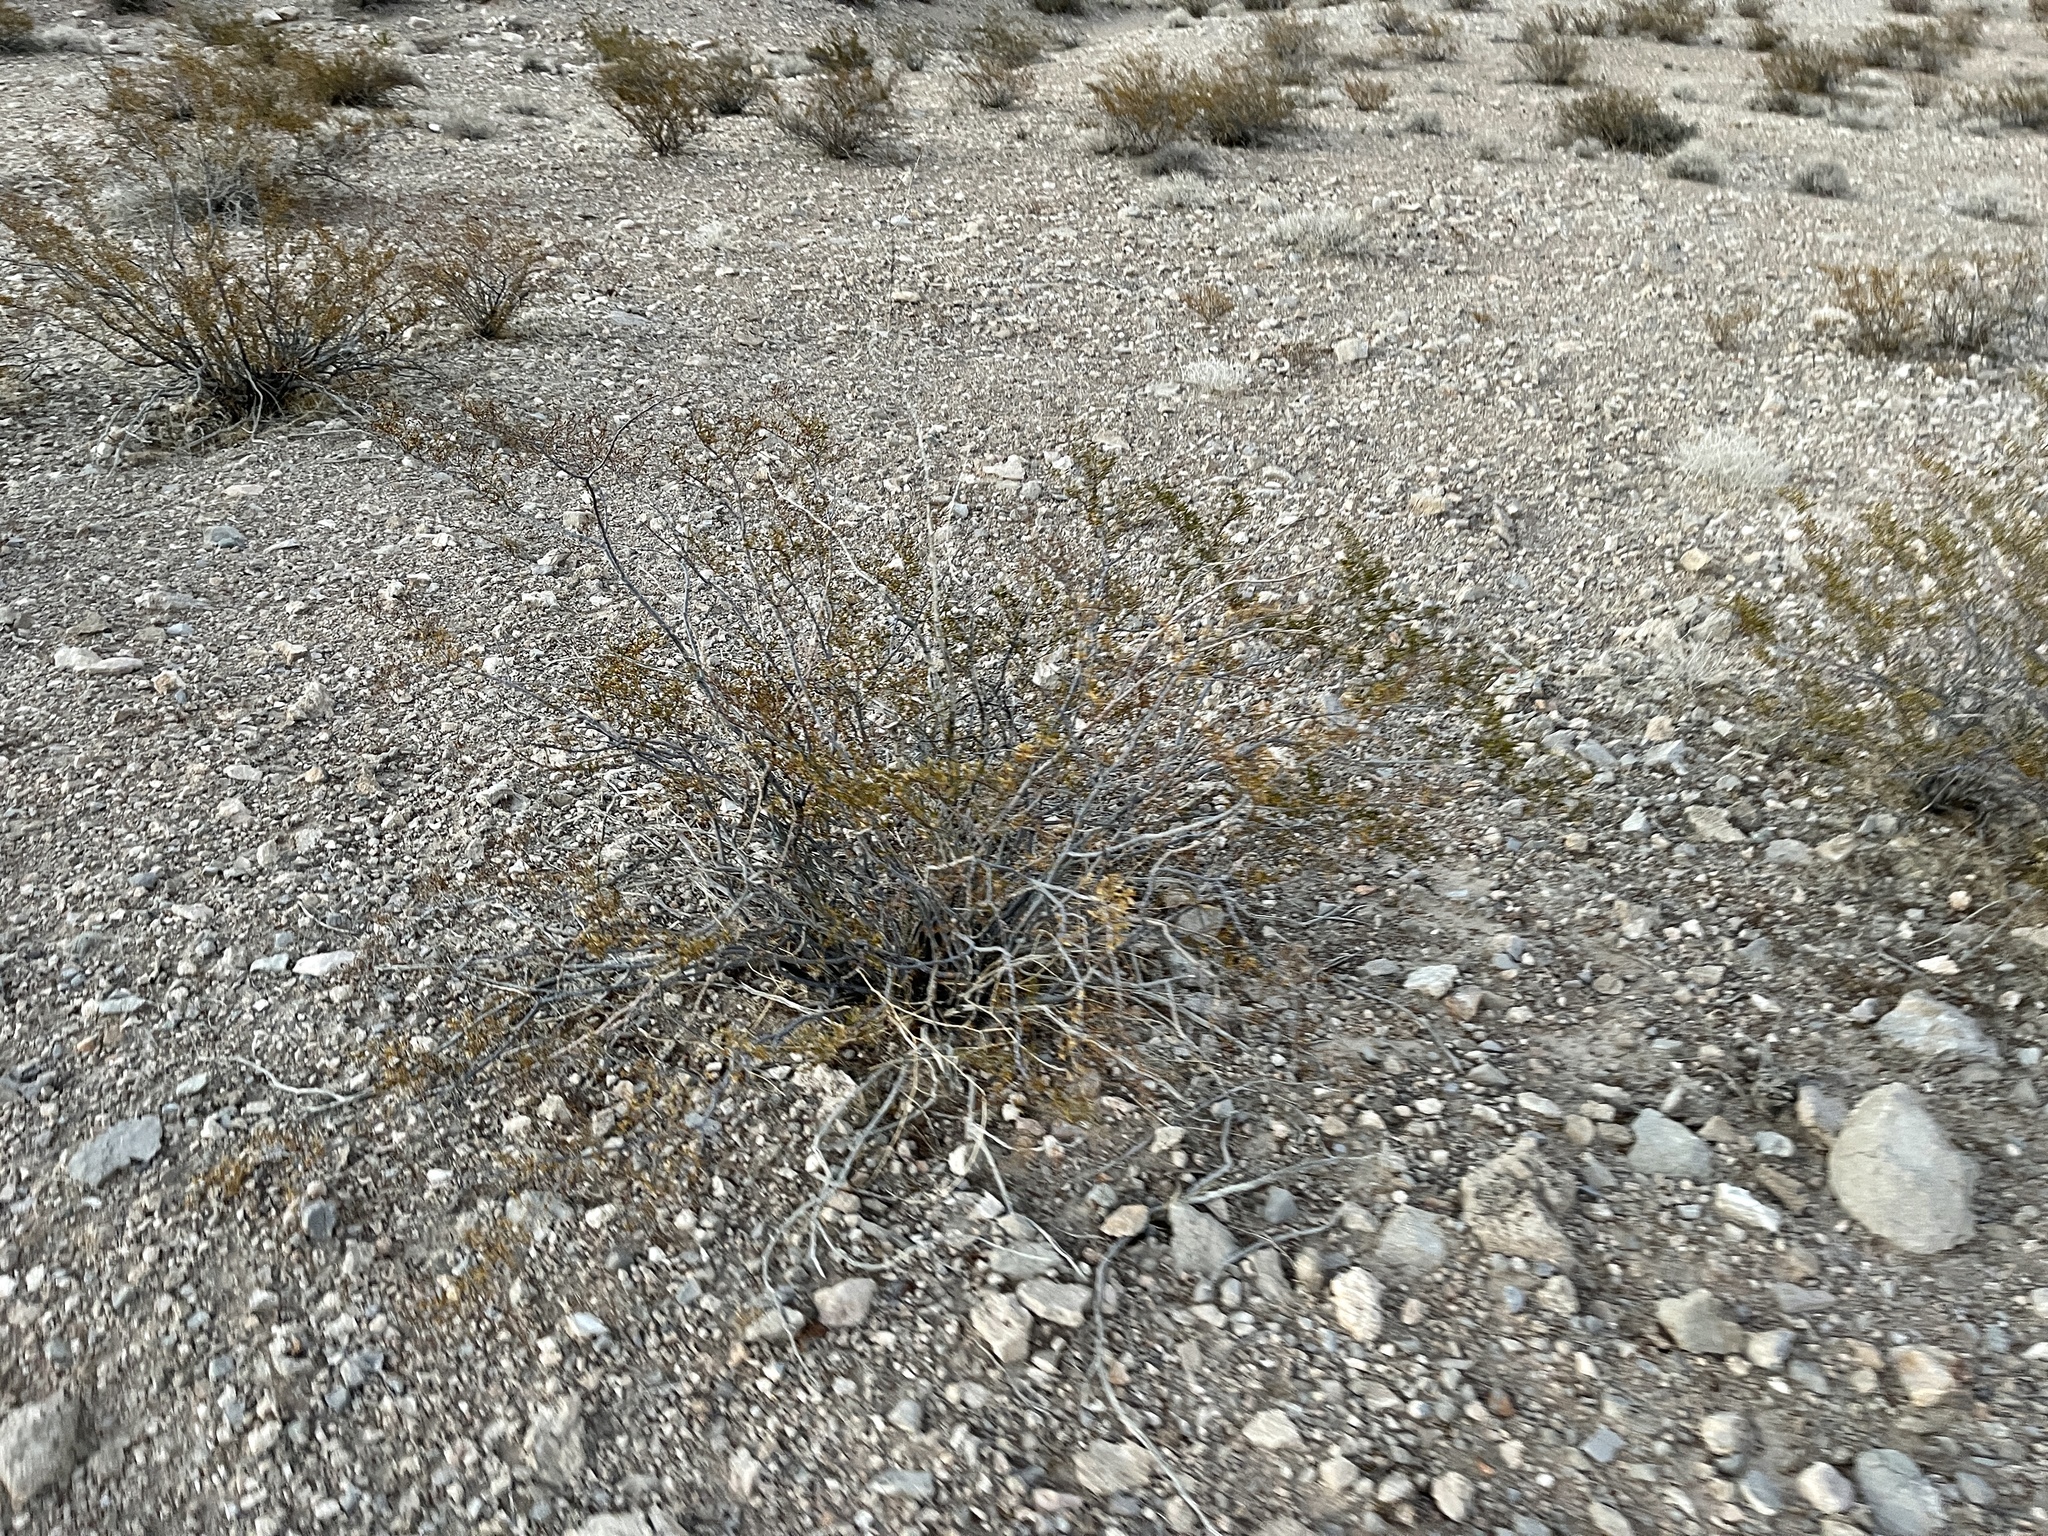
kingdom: Plantae
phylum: Tracheophyta
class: Magnoliopsida
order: Zygophyllales
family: Zygophyllaceae
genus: Larrea
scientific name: Larrea tridentata
